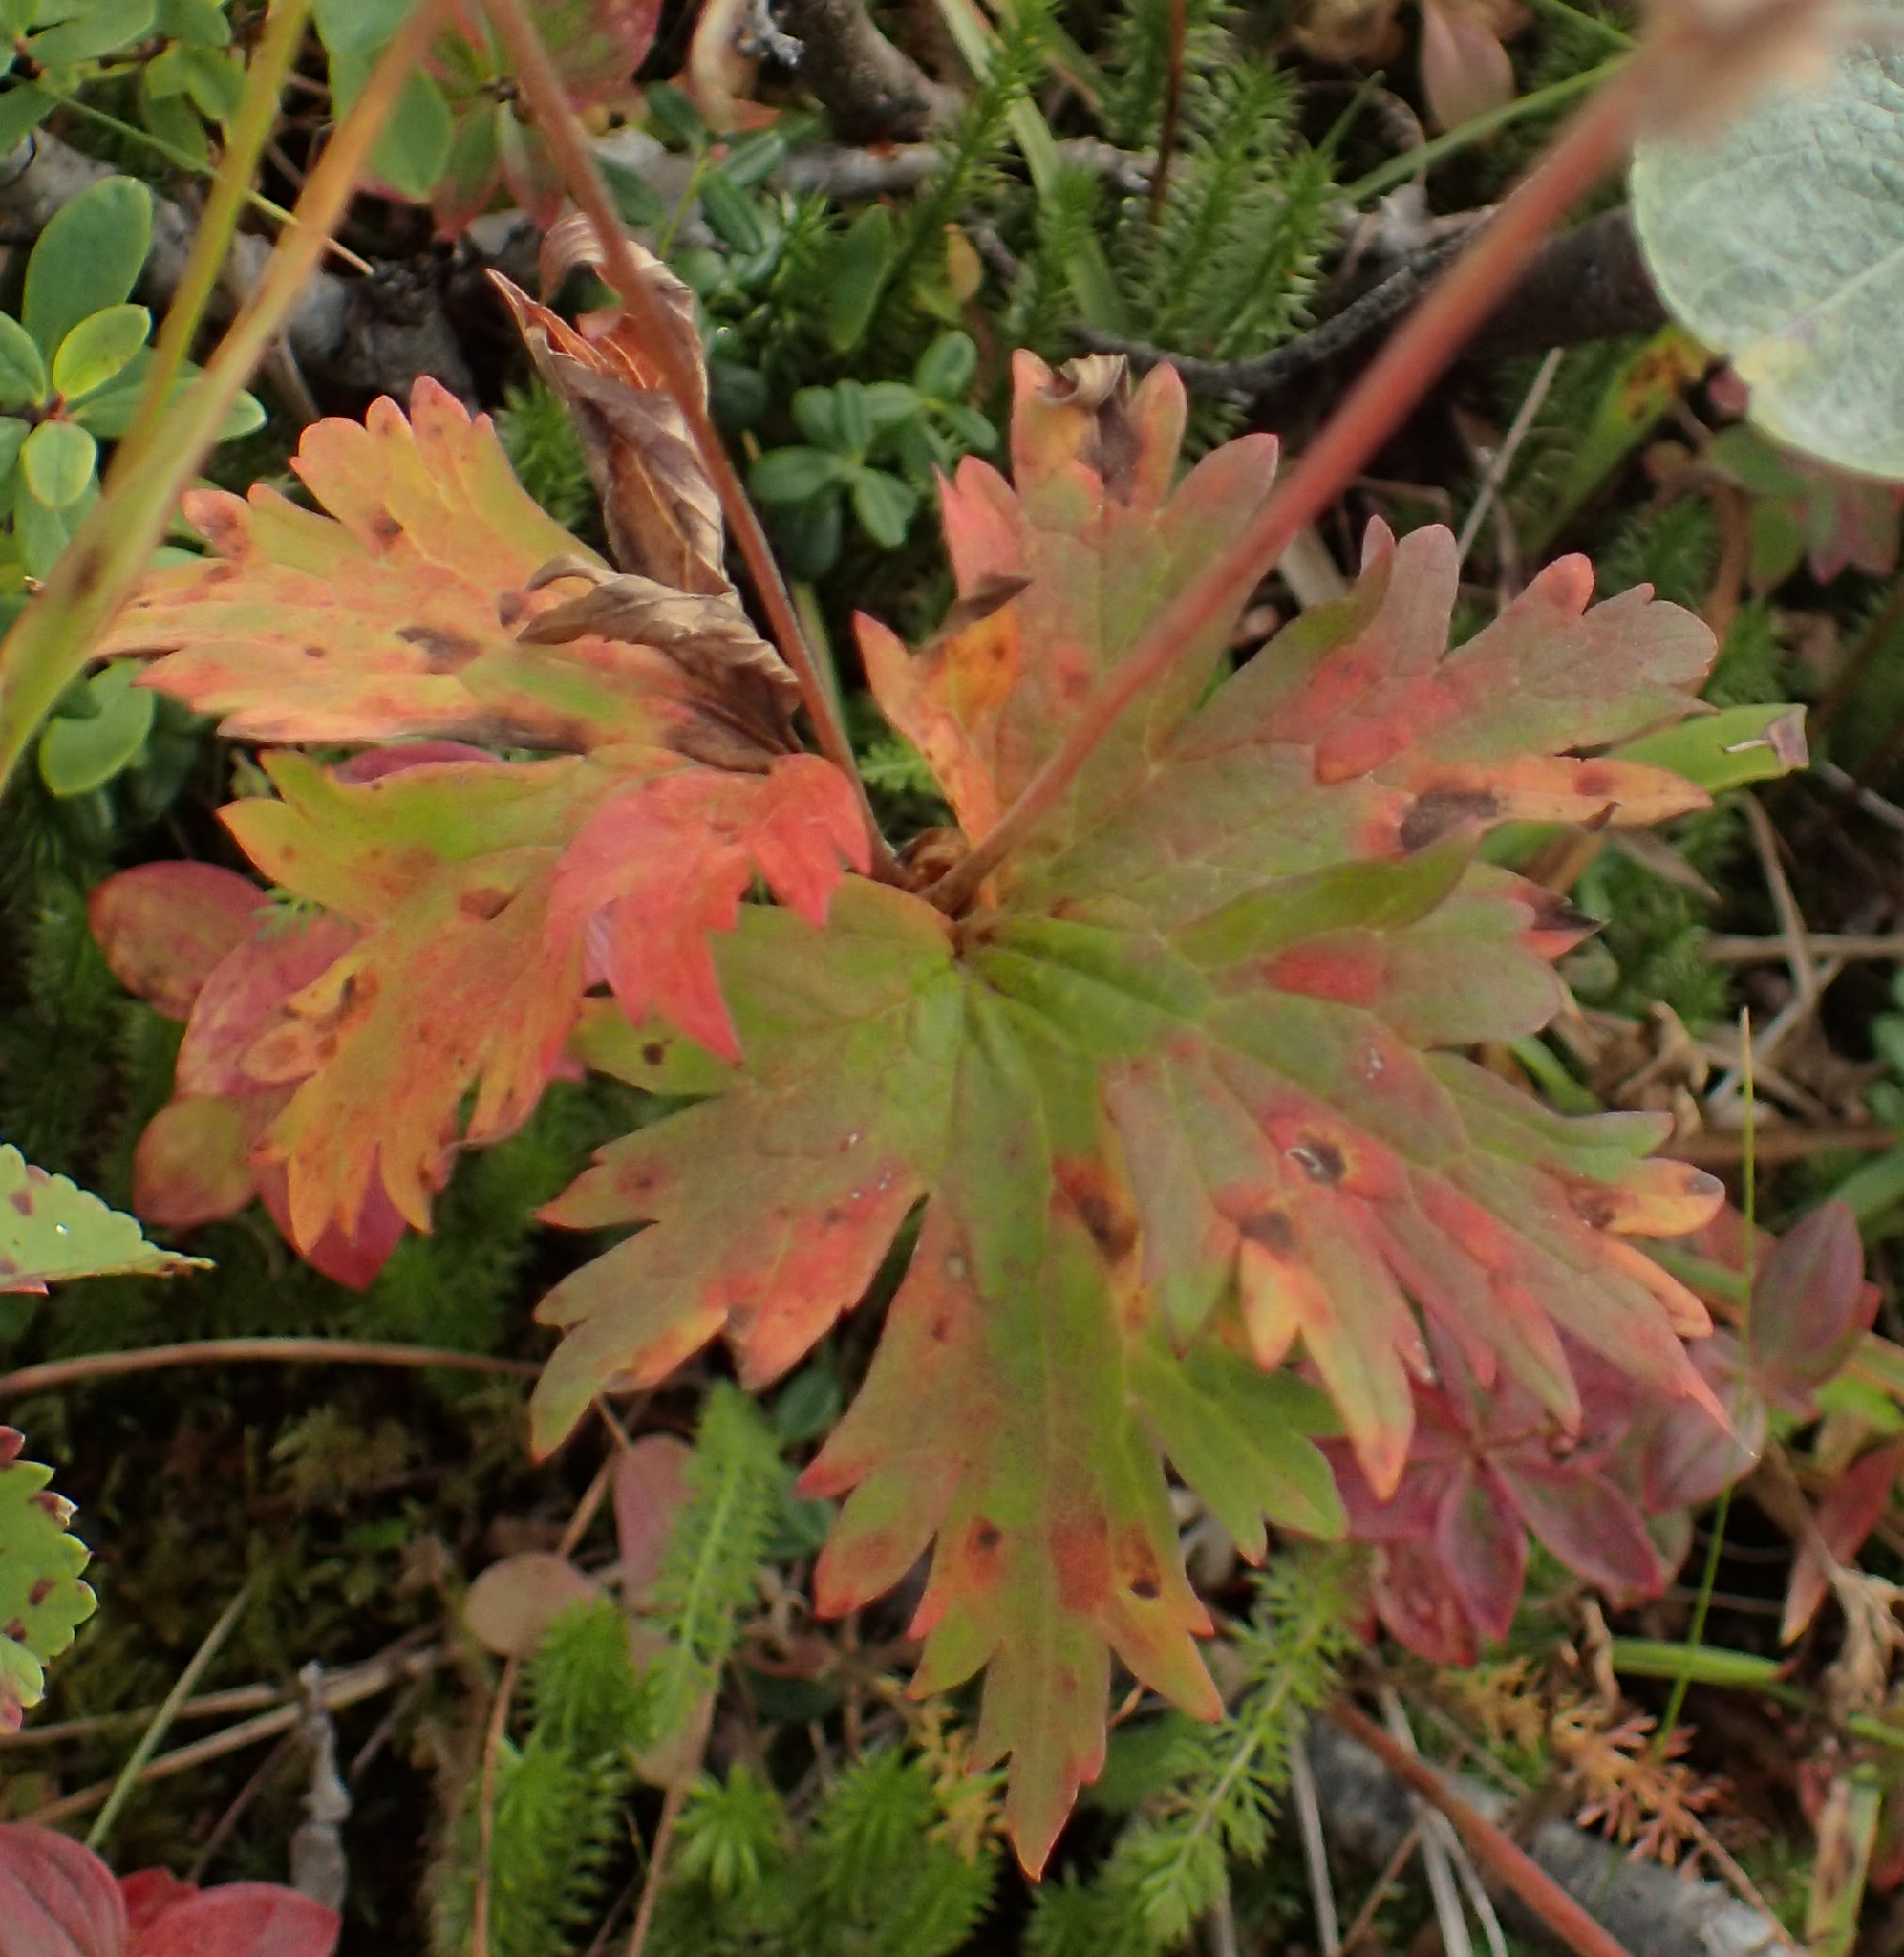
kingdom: Plantae
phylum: Tracheophyta
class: Magnoliopsida
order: Geraniales
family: Geraniaceae
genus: Geranium
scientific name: Geranium erianthum
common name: Northern crane's-bill
